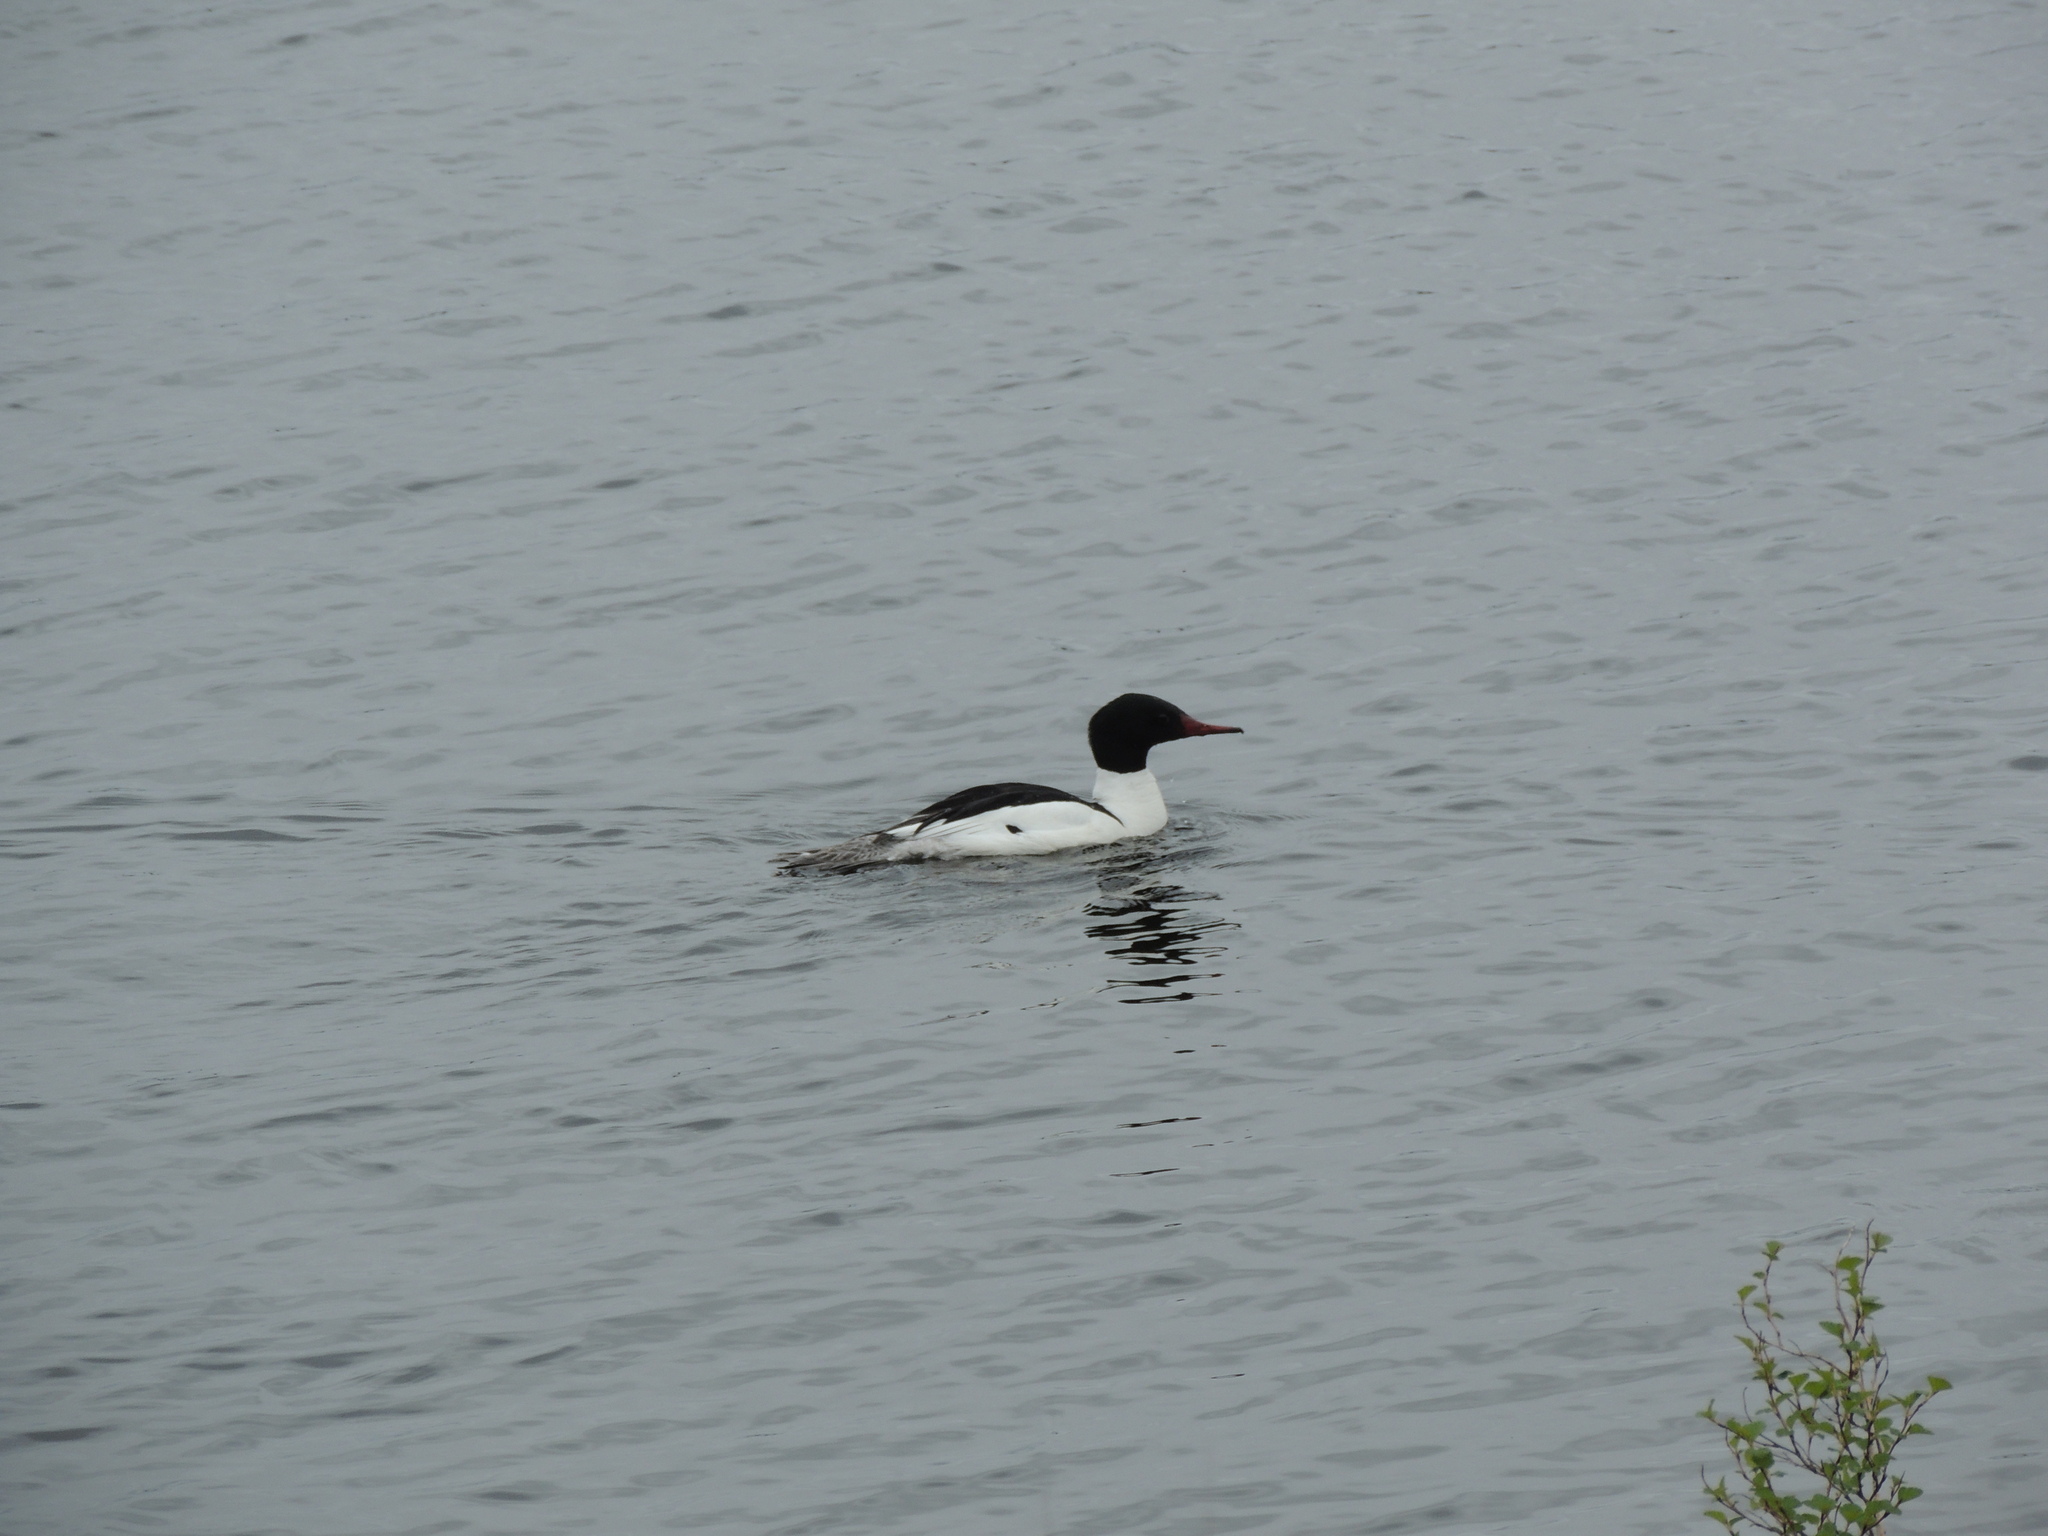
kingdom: Animalia
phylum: Chordata
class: Aves
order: Anseriformes
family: Anatidae
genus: Mergus
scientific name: Mergus merganser
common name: Common merganser
